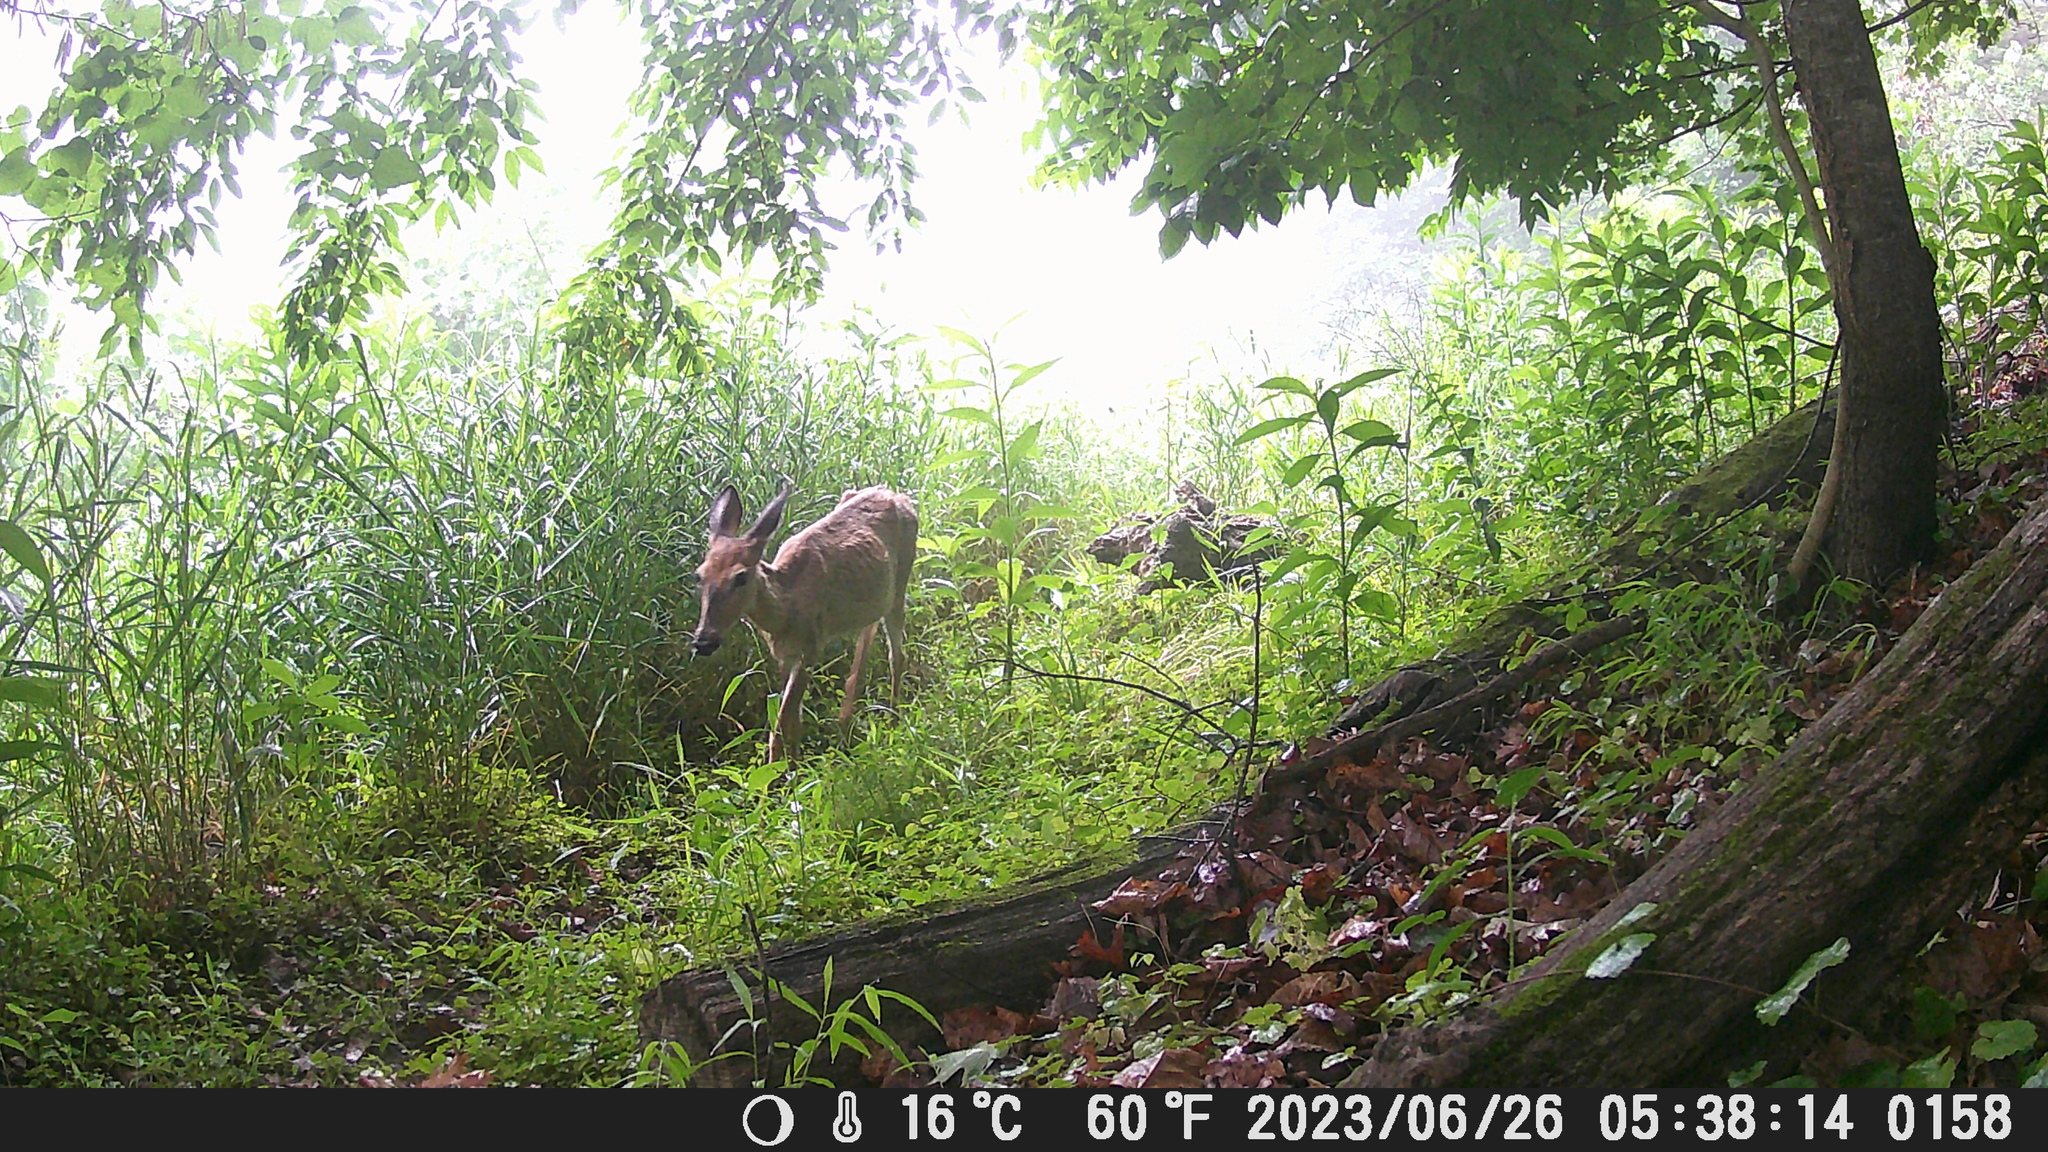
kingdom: Animalia
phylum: Chordata
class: Mammalia
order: Artiodactyla
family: Cervidae
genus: Odocoileus
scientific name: Odocoileus virginianus
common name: White-tailed deer
